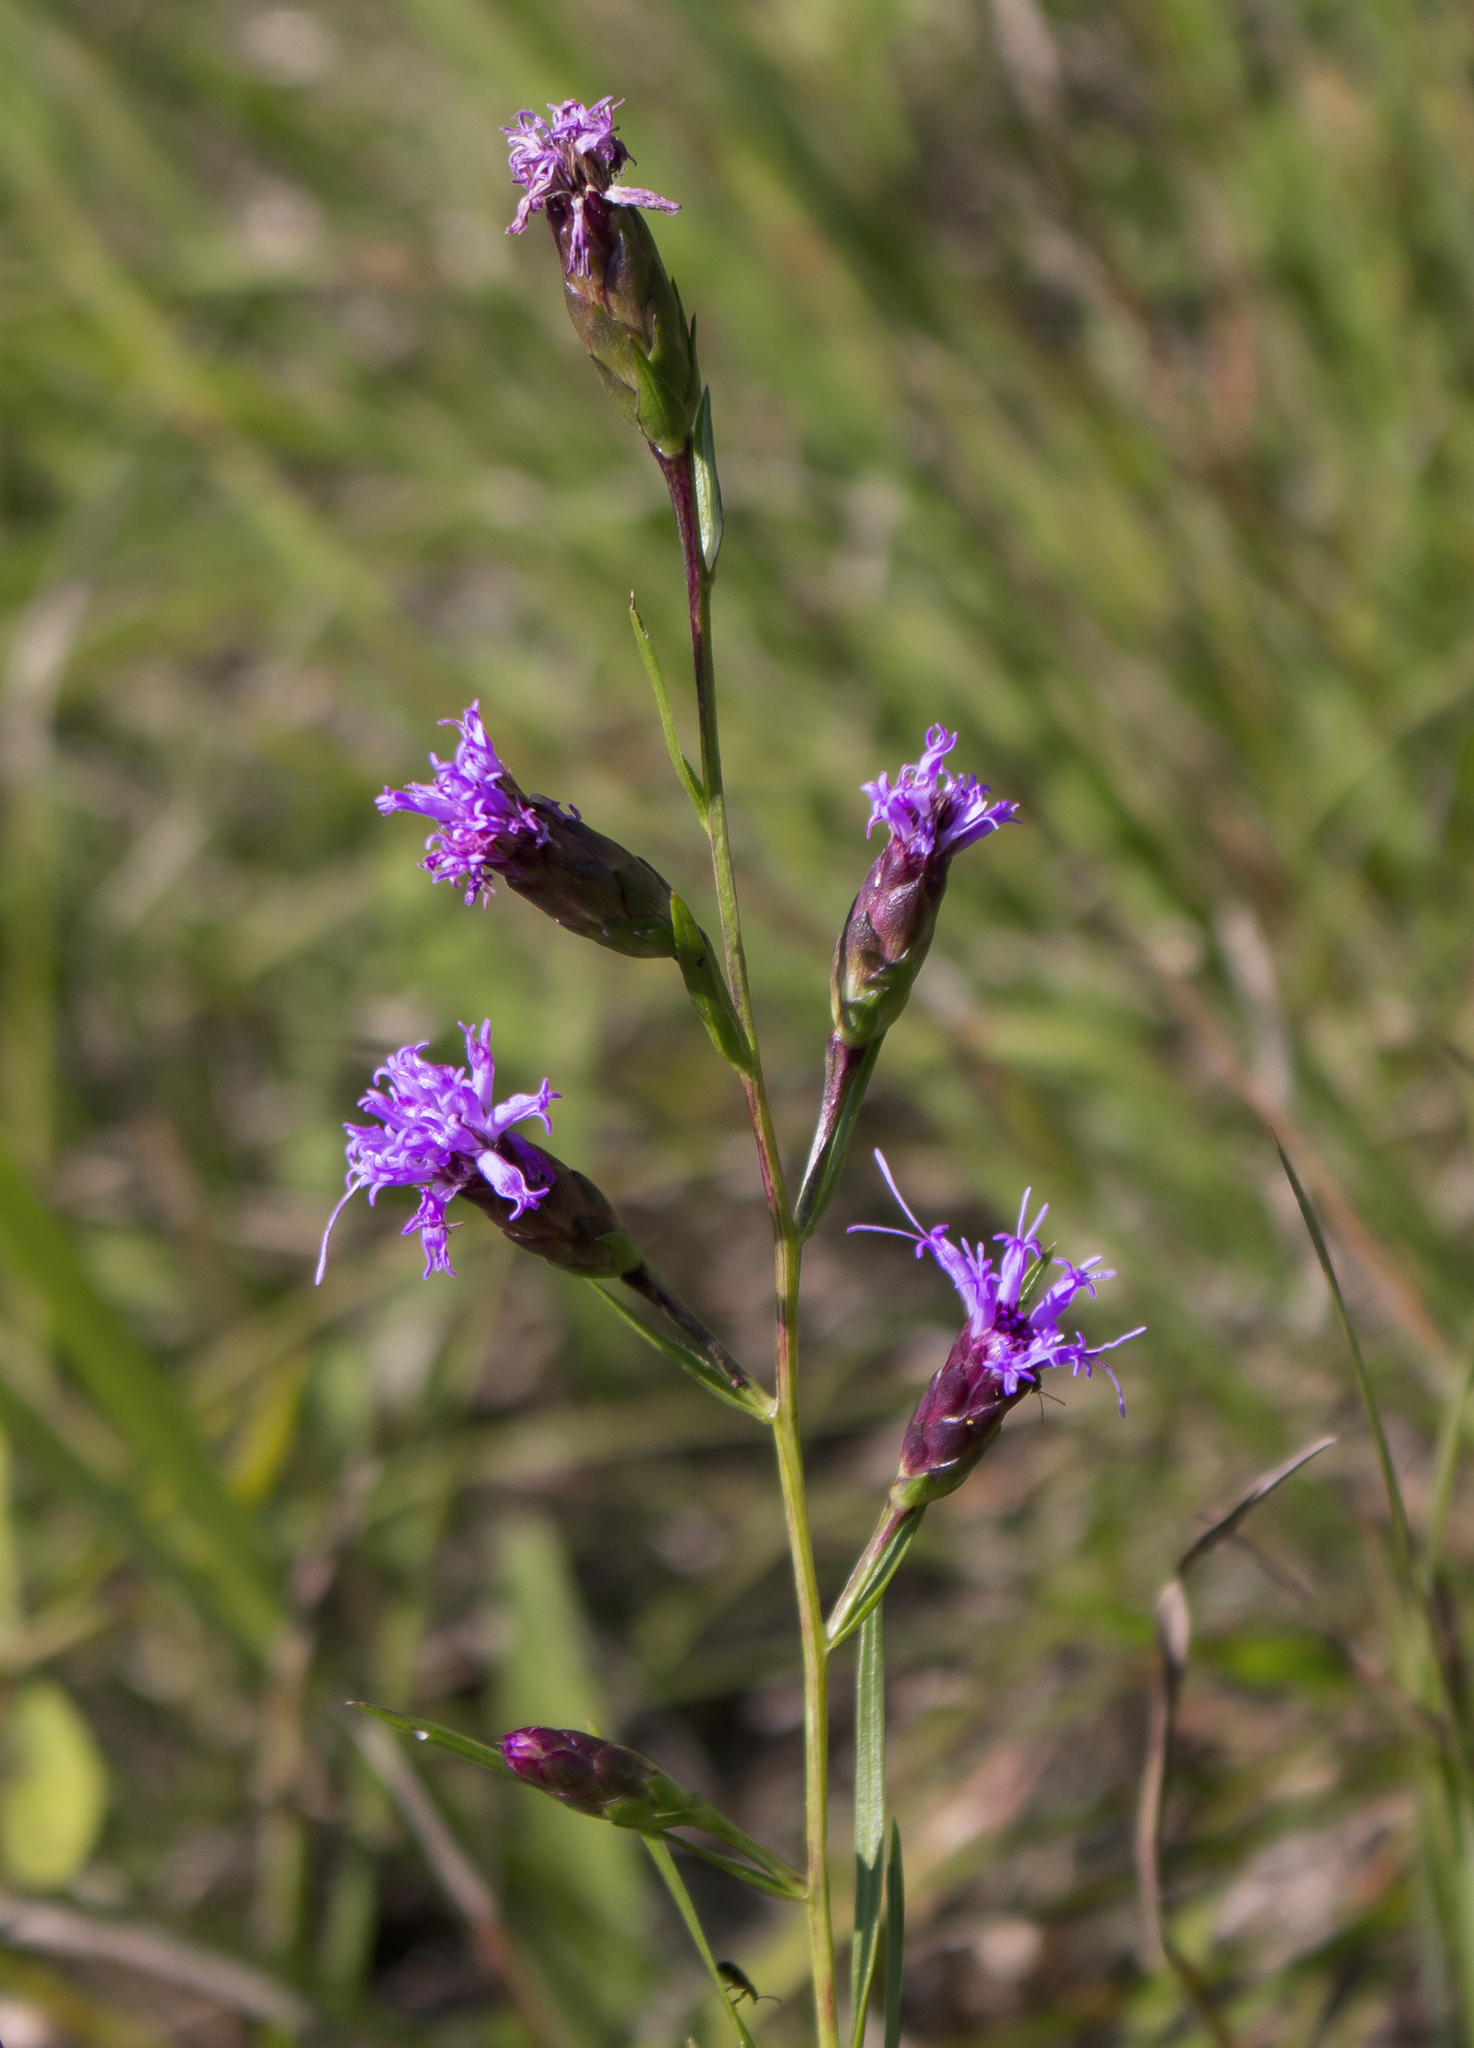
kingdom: Plantae
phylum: Tracheophyta
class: Magnoliopsida
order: Asterales
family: Asteraceae
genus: Liatris
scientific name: Liatris cylindracea
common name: Few-head blazingstar
